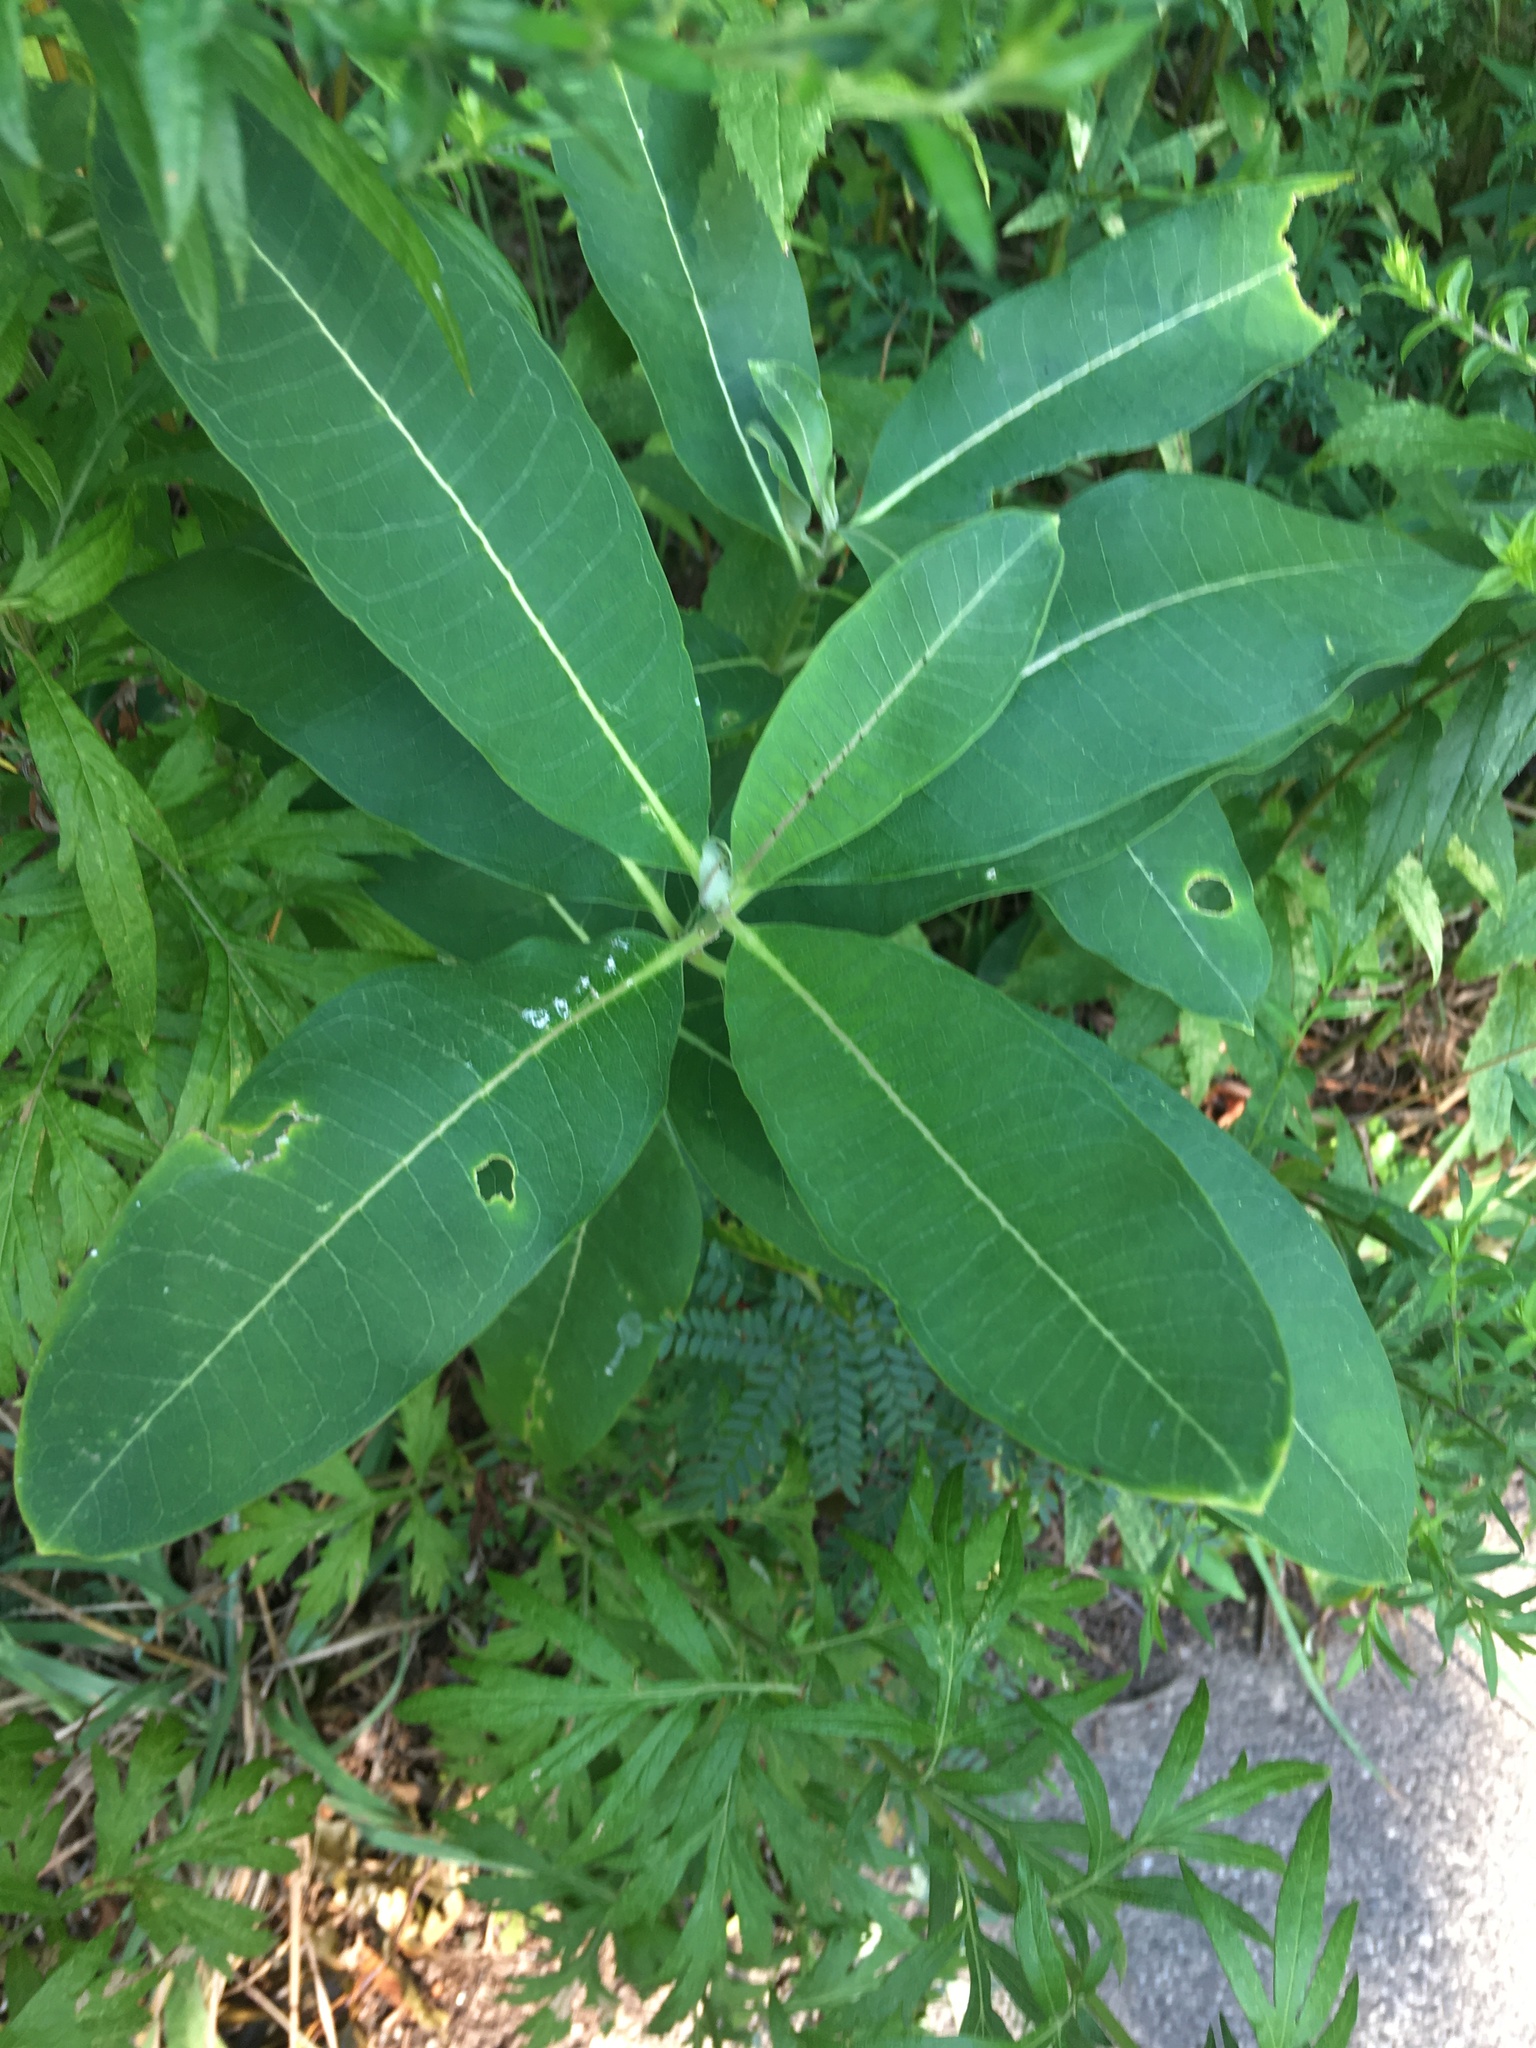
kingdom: Plantae
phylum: Tracheophyta
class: Magnoliopsida
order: Gentianales
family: Apocynaceae
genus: Asclepias
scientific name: Asclepias syriaca
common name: Common milkweed
